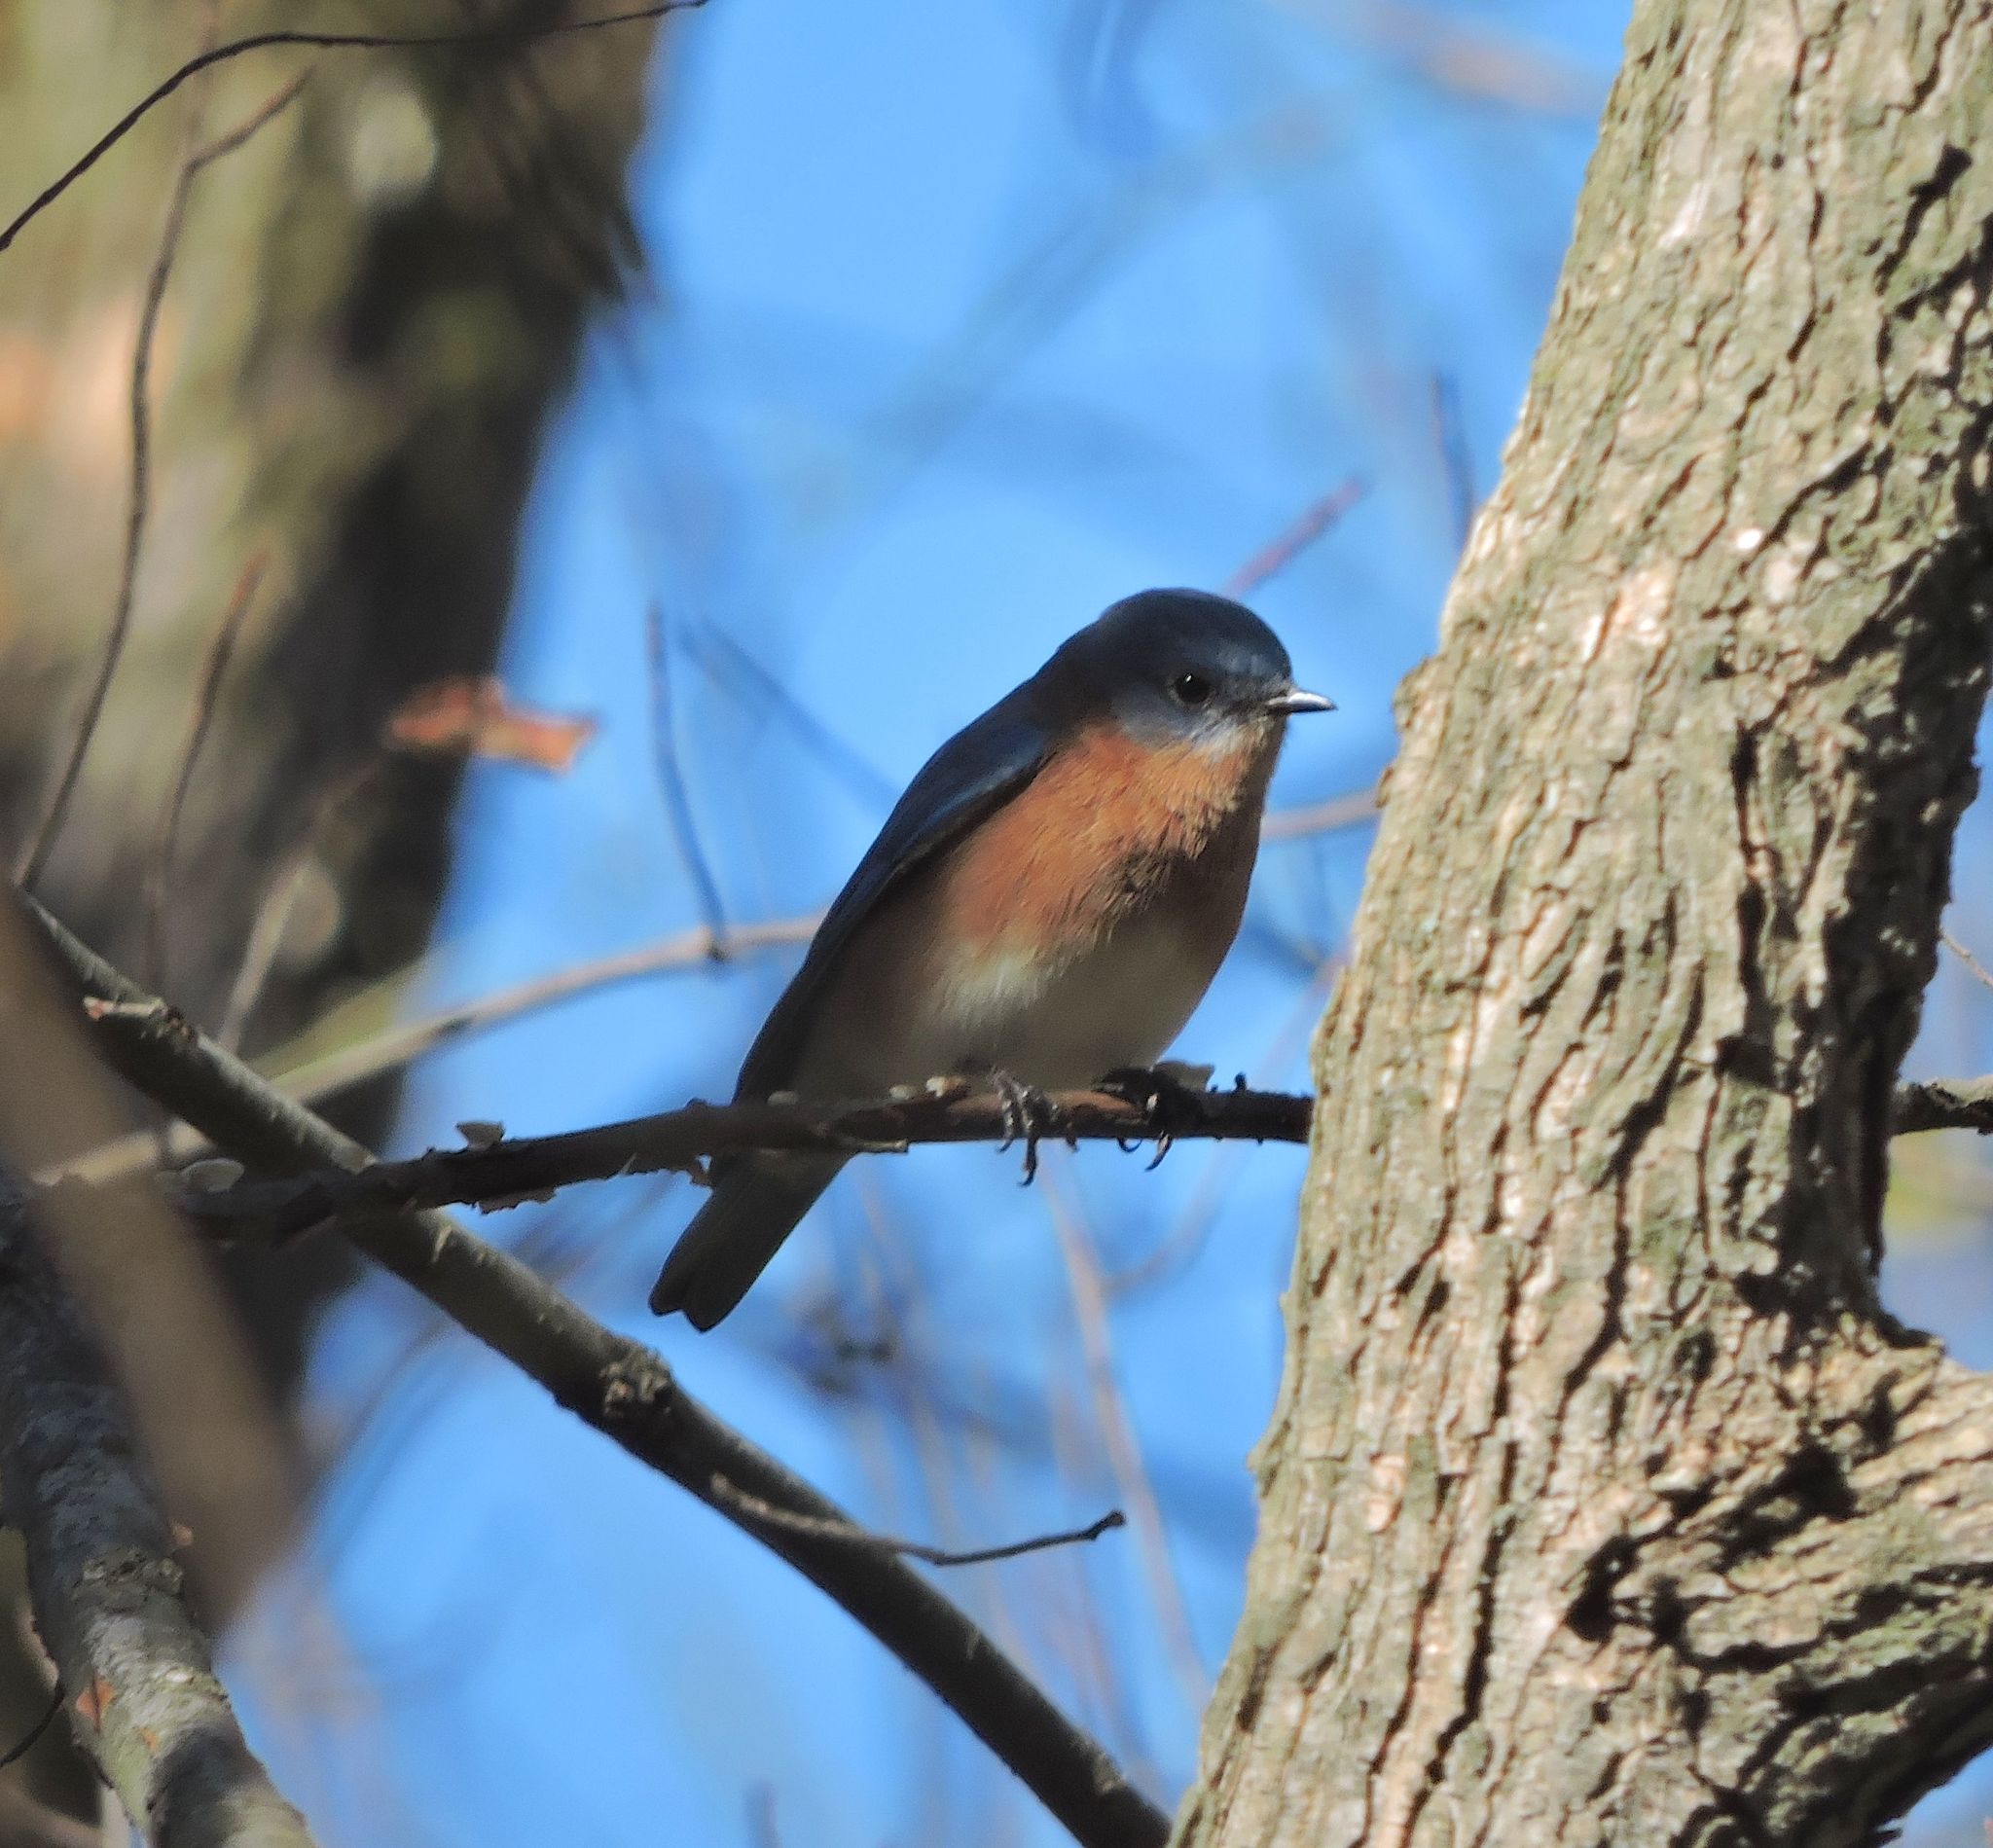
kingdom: Animalia
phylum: Chordata
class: Aves
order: Passeriformes
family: Turdidae
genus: Sialia
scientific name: Sialia sialis
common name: Eastern bluebird
